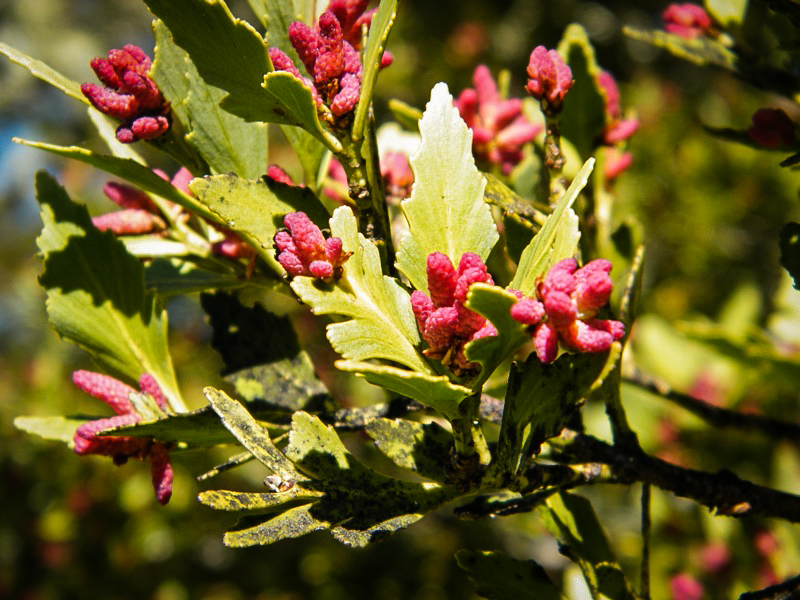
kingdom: Plantae
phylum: Tracheophyta
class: Pinopsida
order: Pinales
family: Phyllocladaceae
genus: Phyllocladus
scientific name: Phyllocladus trichomanoides
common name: Celery pine
